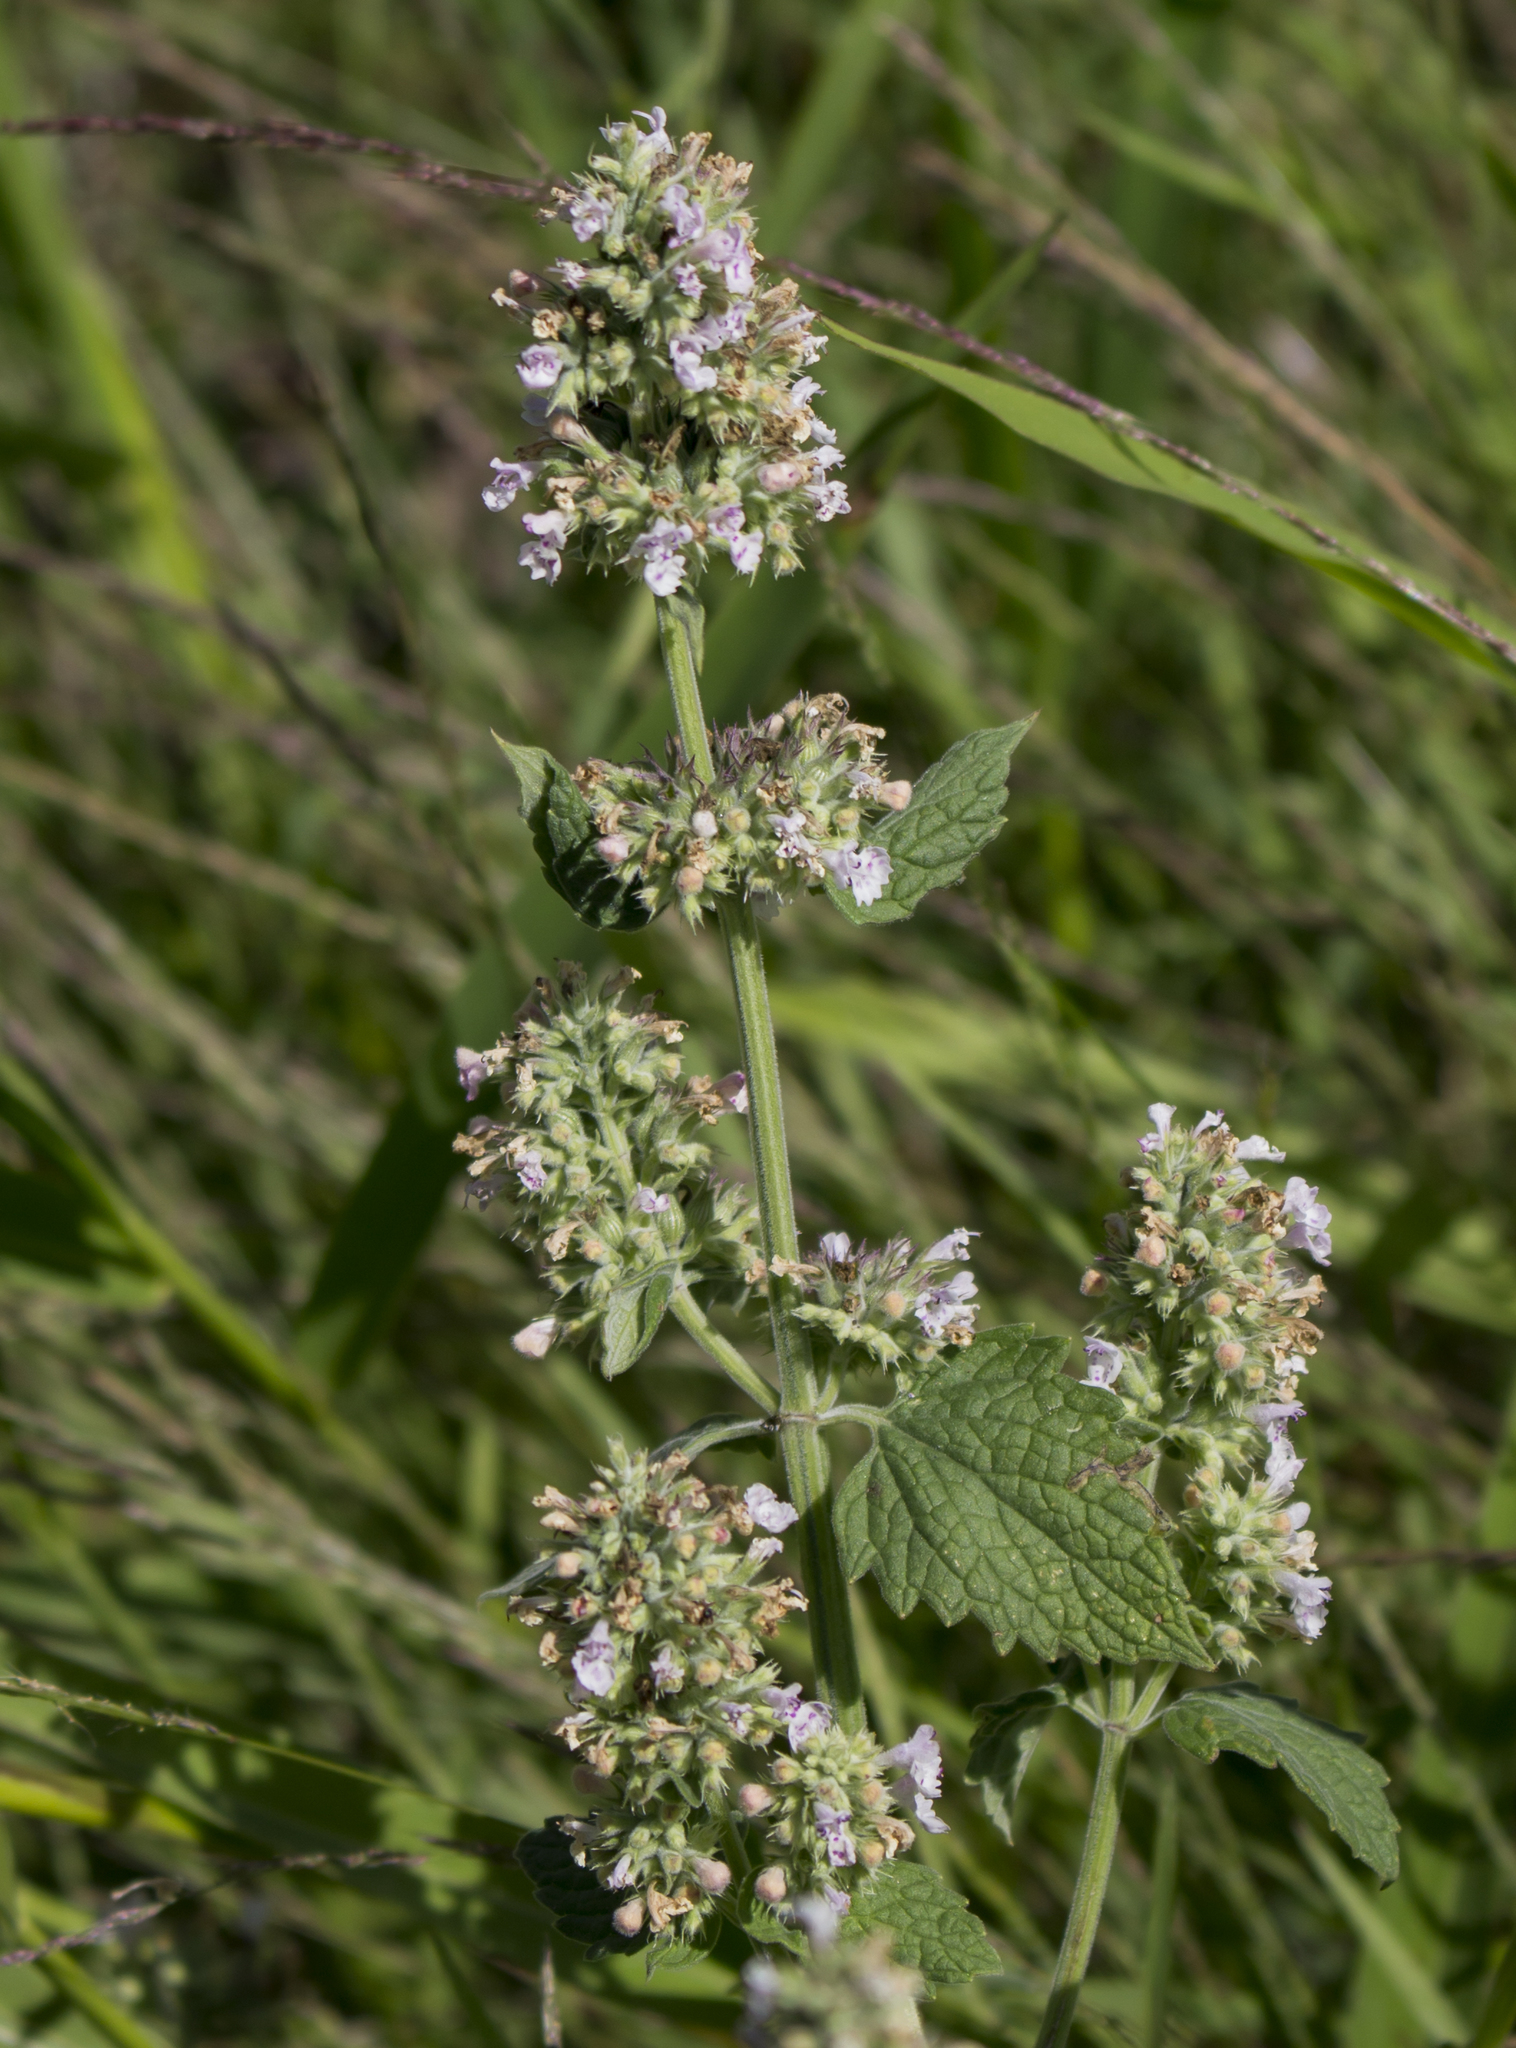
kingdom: Plantae
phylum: Tracheophyta
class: Magnoliopsida
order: Lamiales
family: Lamiaceae
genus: Nepeta
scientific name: Nepeta cataria
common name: Catnip
